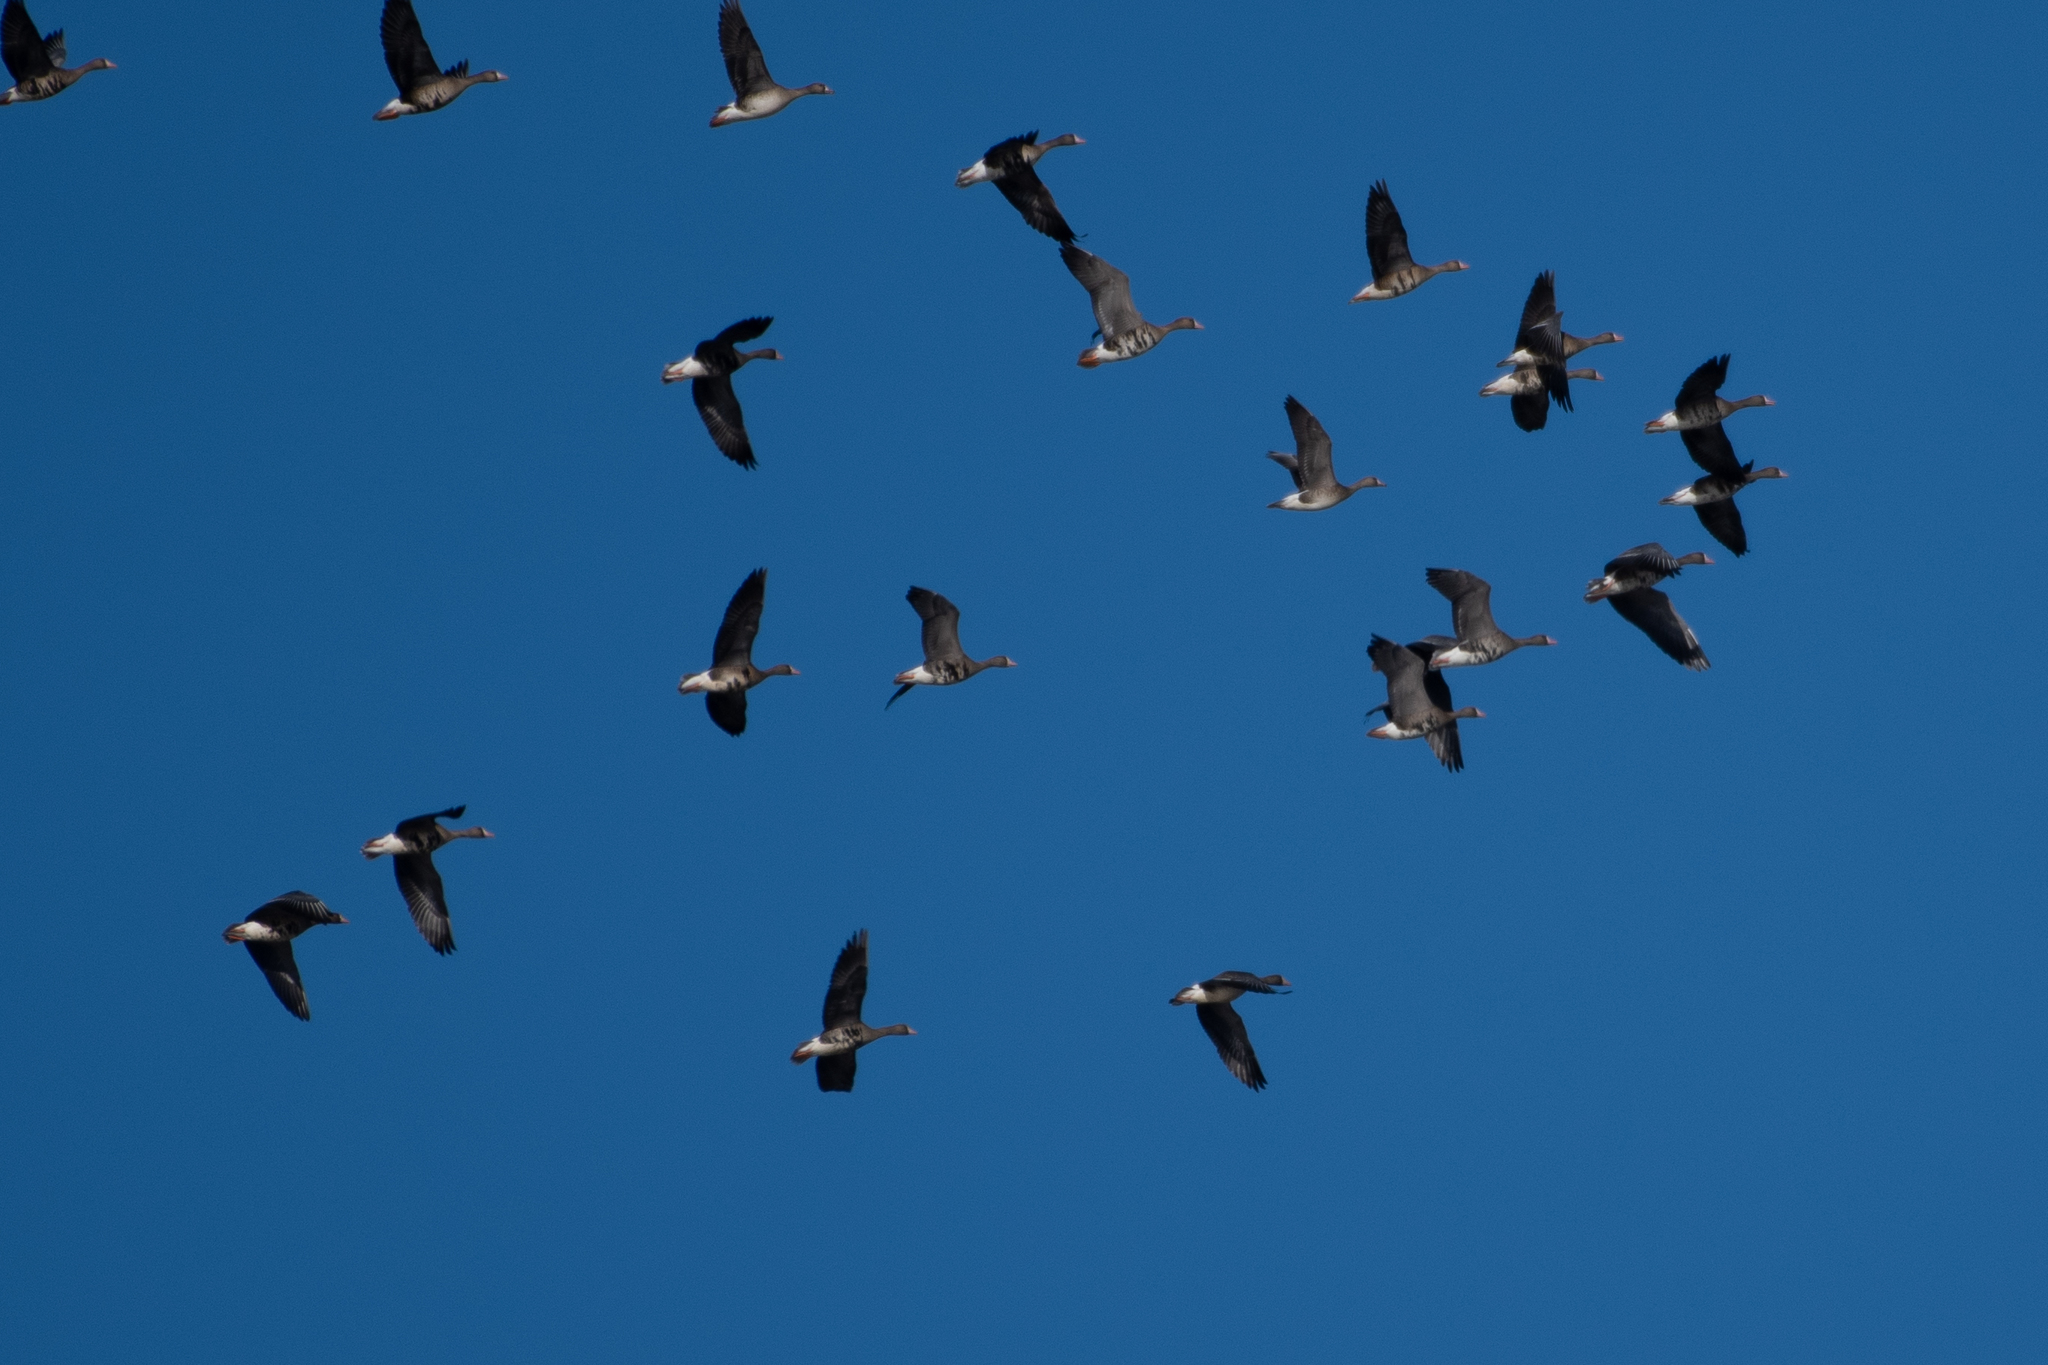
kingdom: Animalia
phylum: Chordata
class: Aves
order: Anseriformes
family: Anatidae
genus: Anser
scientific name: Anser albifrons
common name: Greater white-fronted goose
